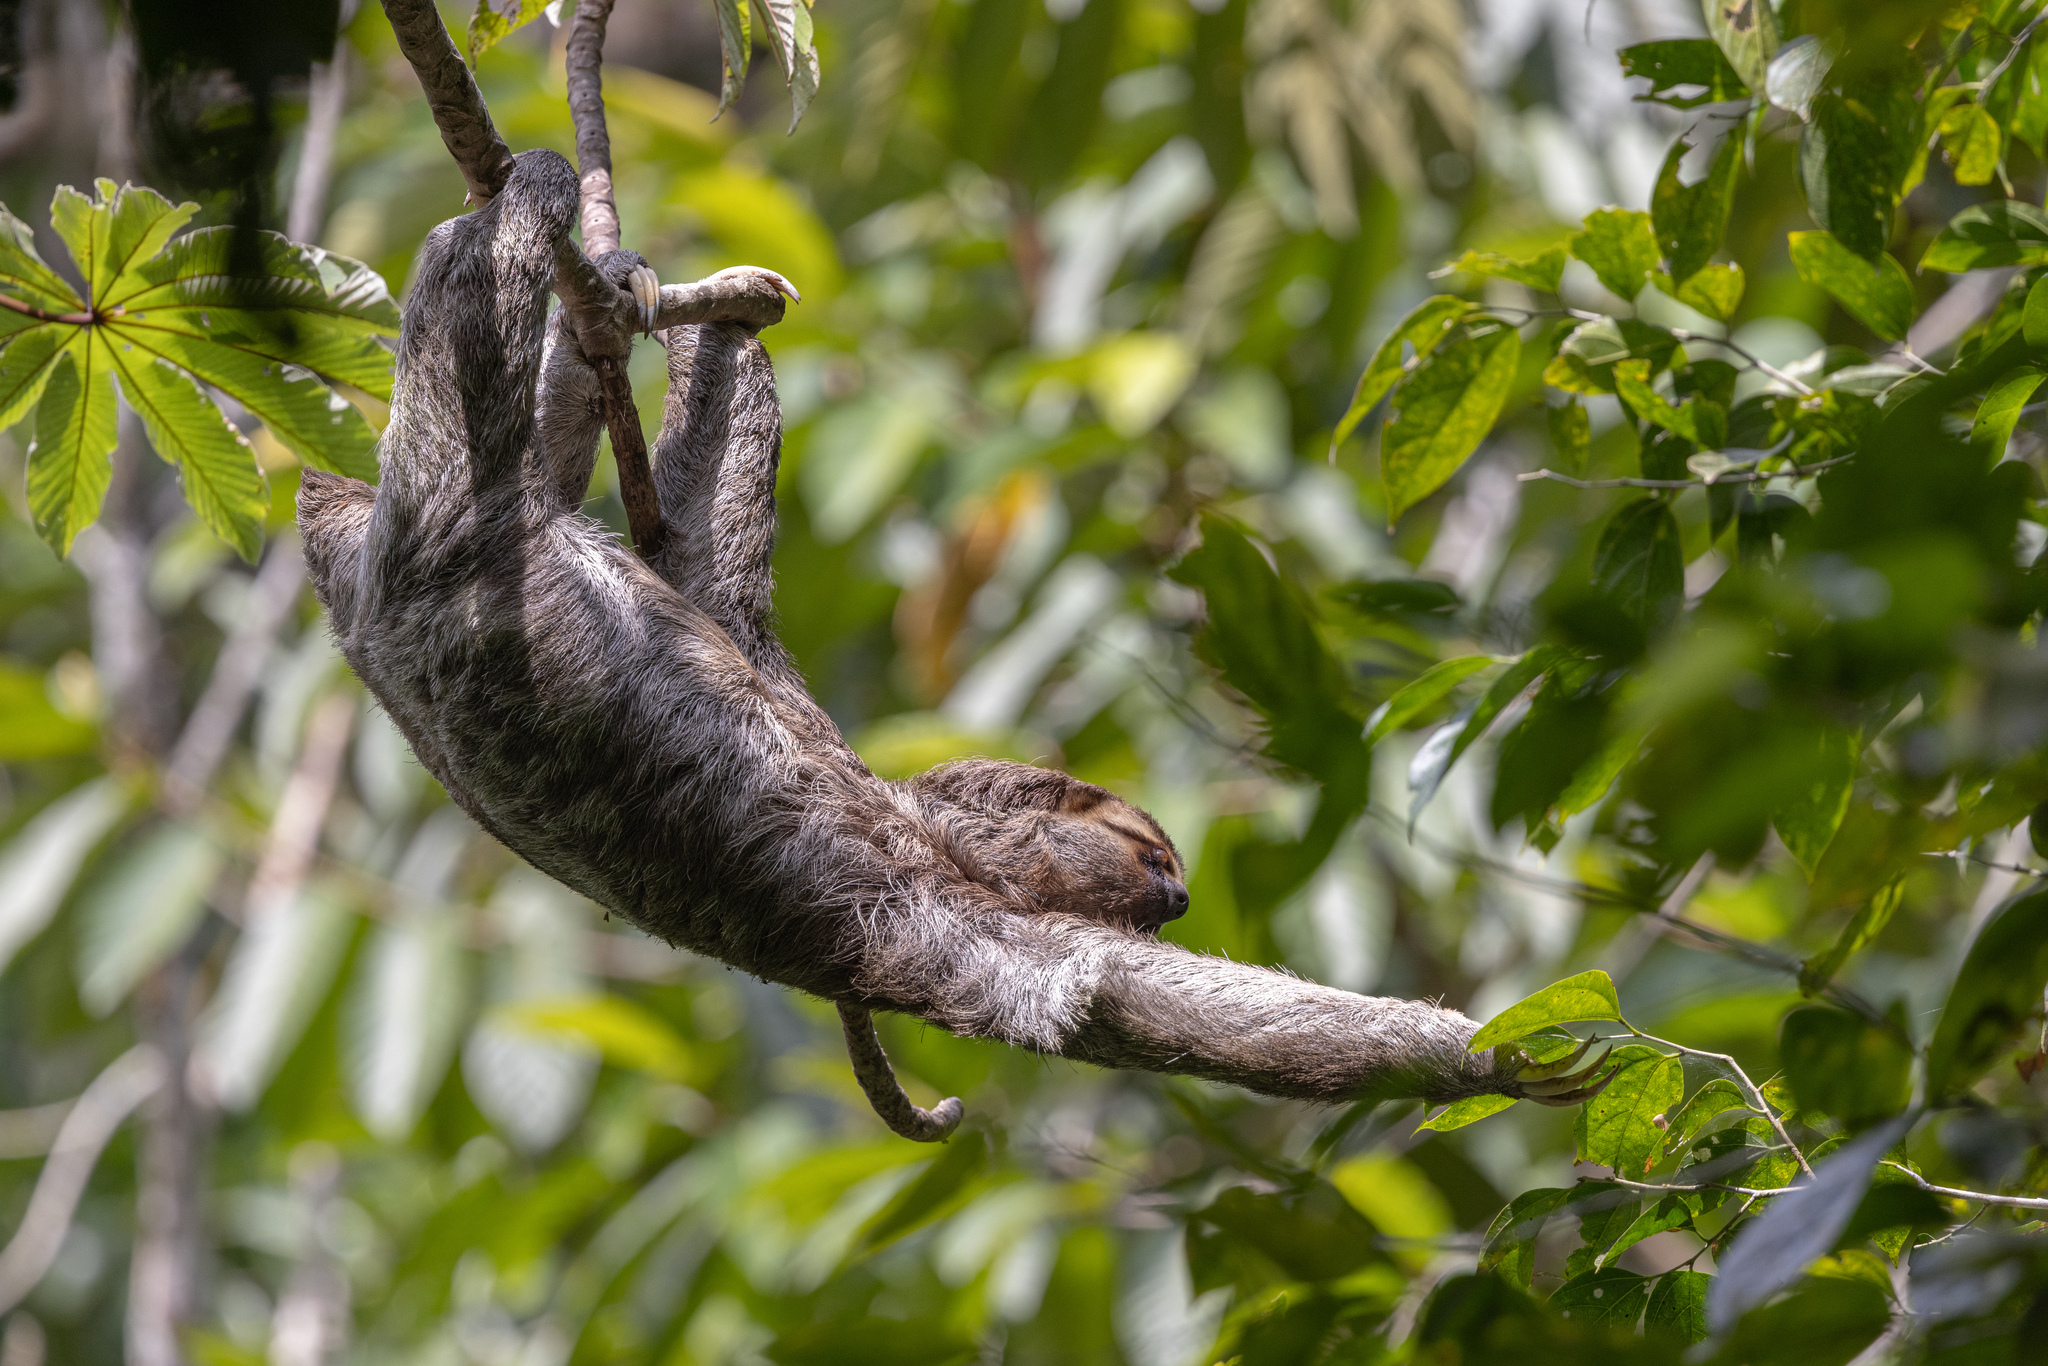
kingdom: Animalia
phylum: Chordata
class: Mammalia
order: Pilosa
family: Bradypodidae
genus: Bradypus
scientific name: Bradypus variegatus
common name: Brown-throated three-toed sloth
